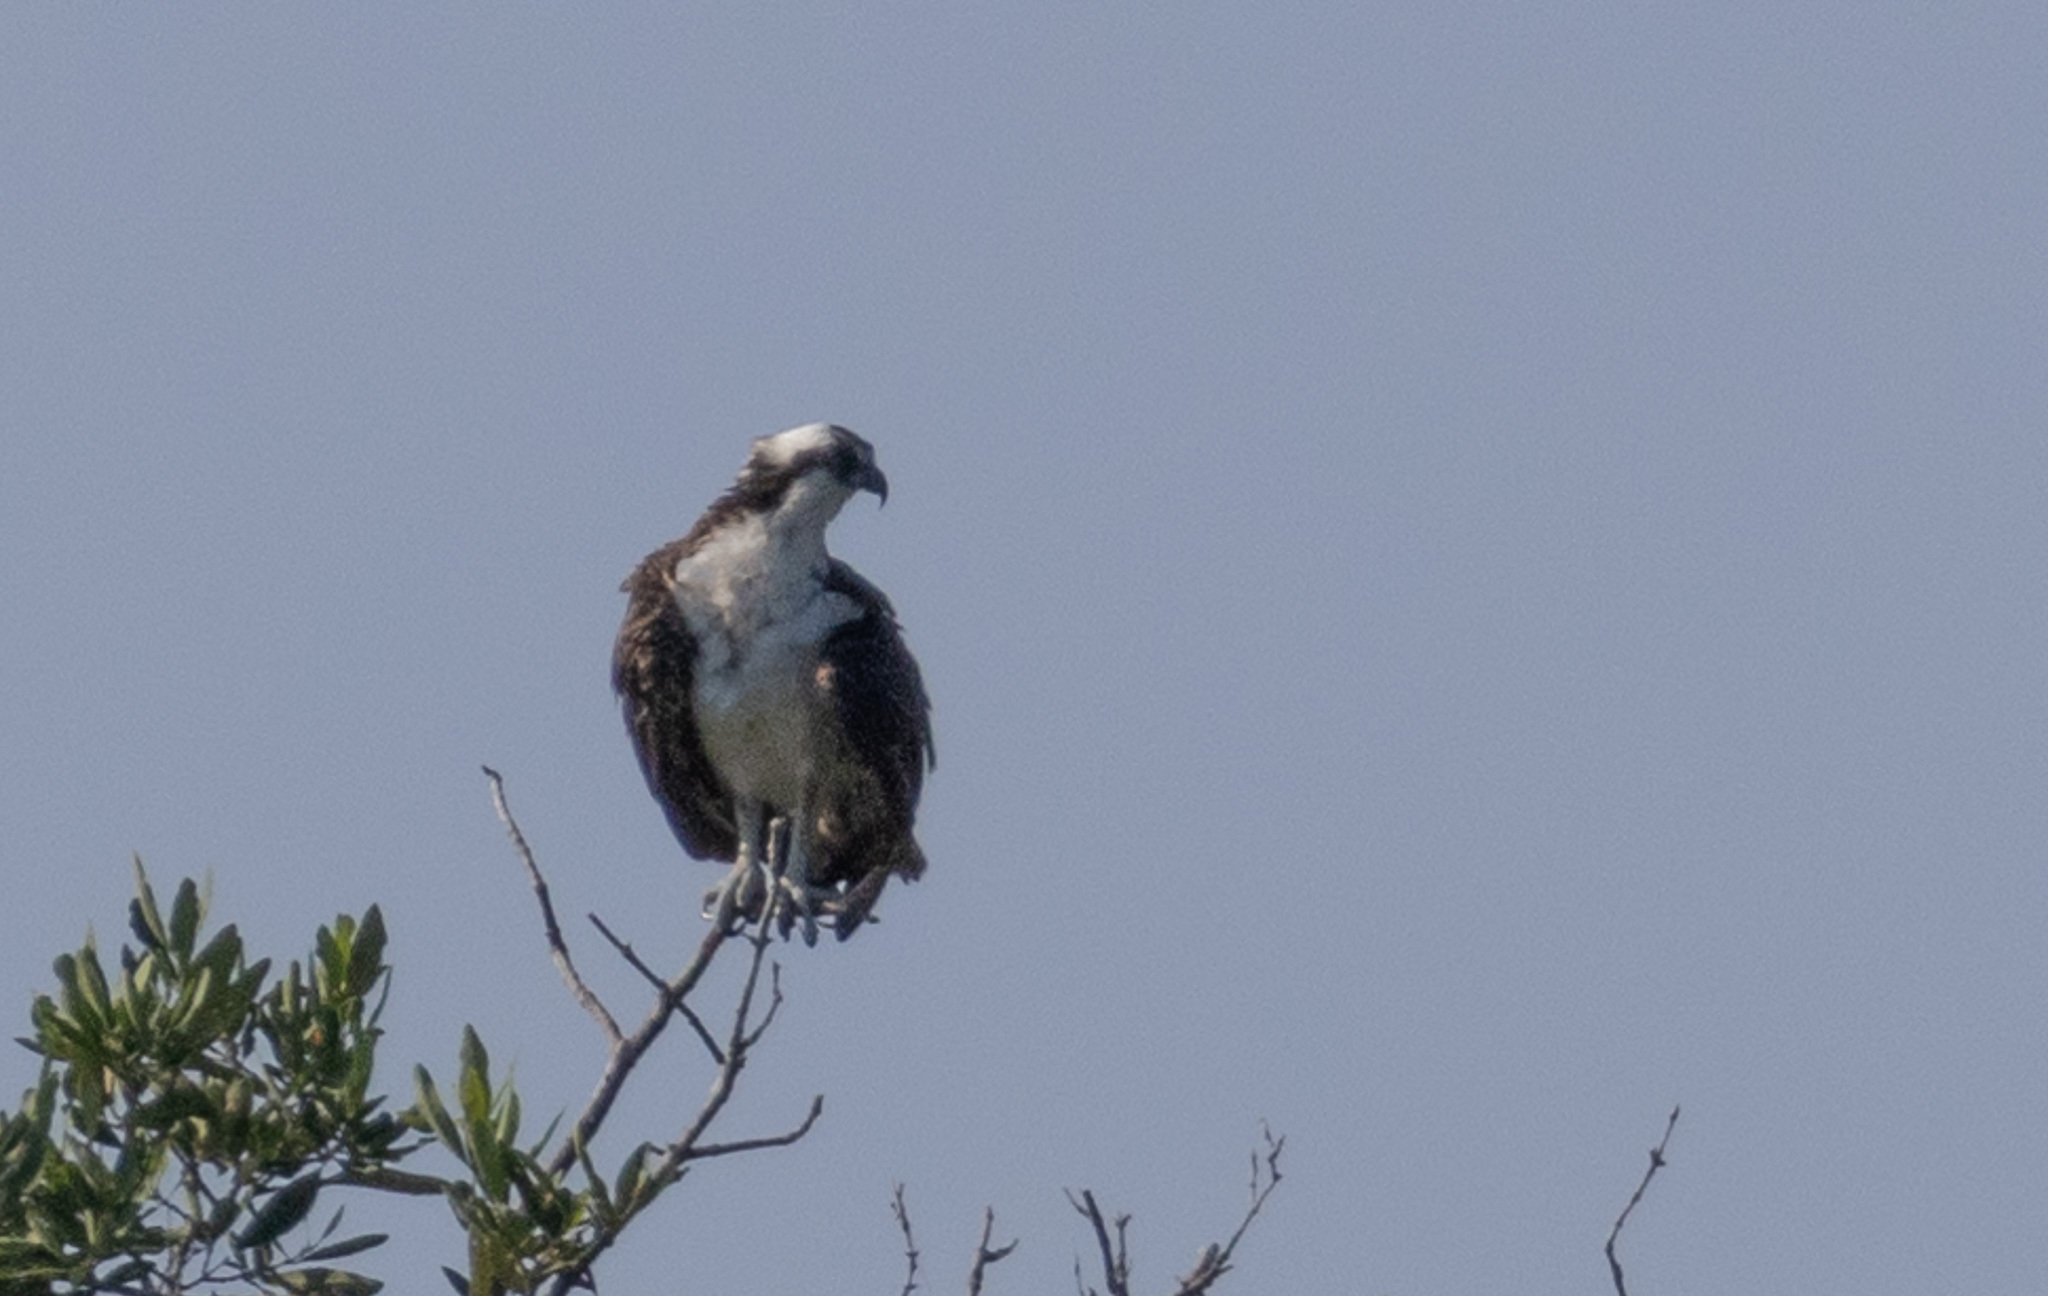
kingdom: Animalia
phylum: Chordata
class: Aves
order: Accipitriformes
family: Pandionidae
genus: Pandion
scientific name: Pandion haliaetus
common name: Osprey
